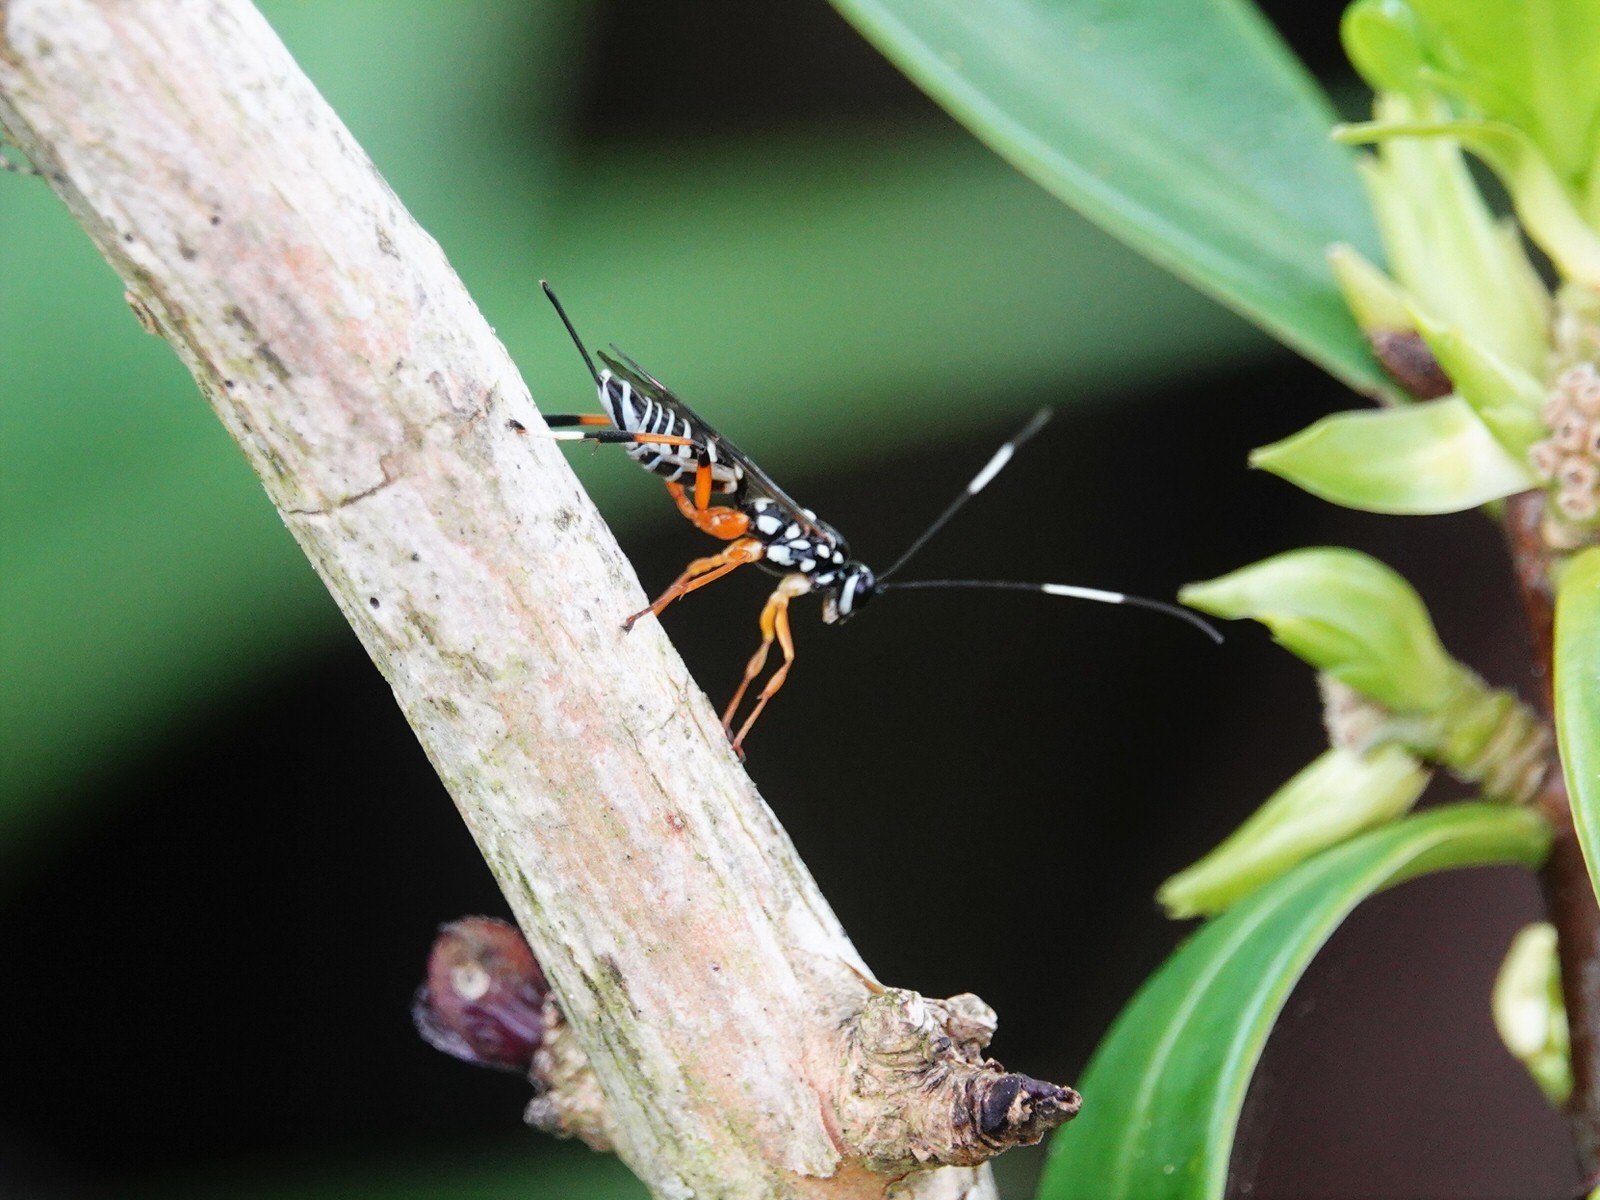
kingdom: Animalia
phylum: Arthropoda
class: Insecta
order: Hymenoptera
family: Ichneumonidae
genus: Xanthocryptus
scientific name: Xanthocryptus novozealandicus
